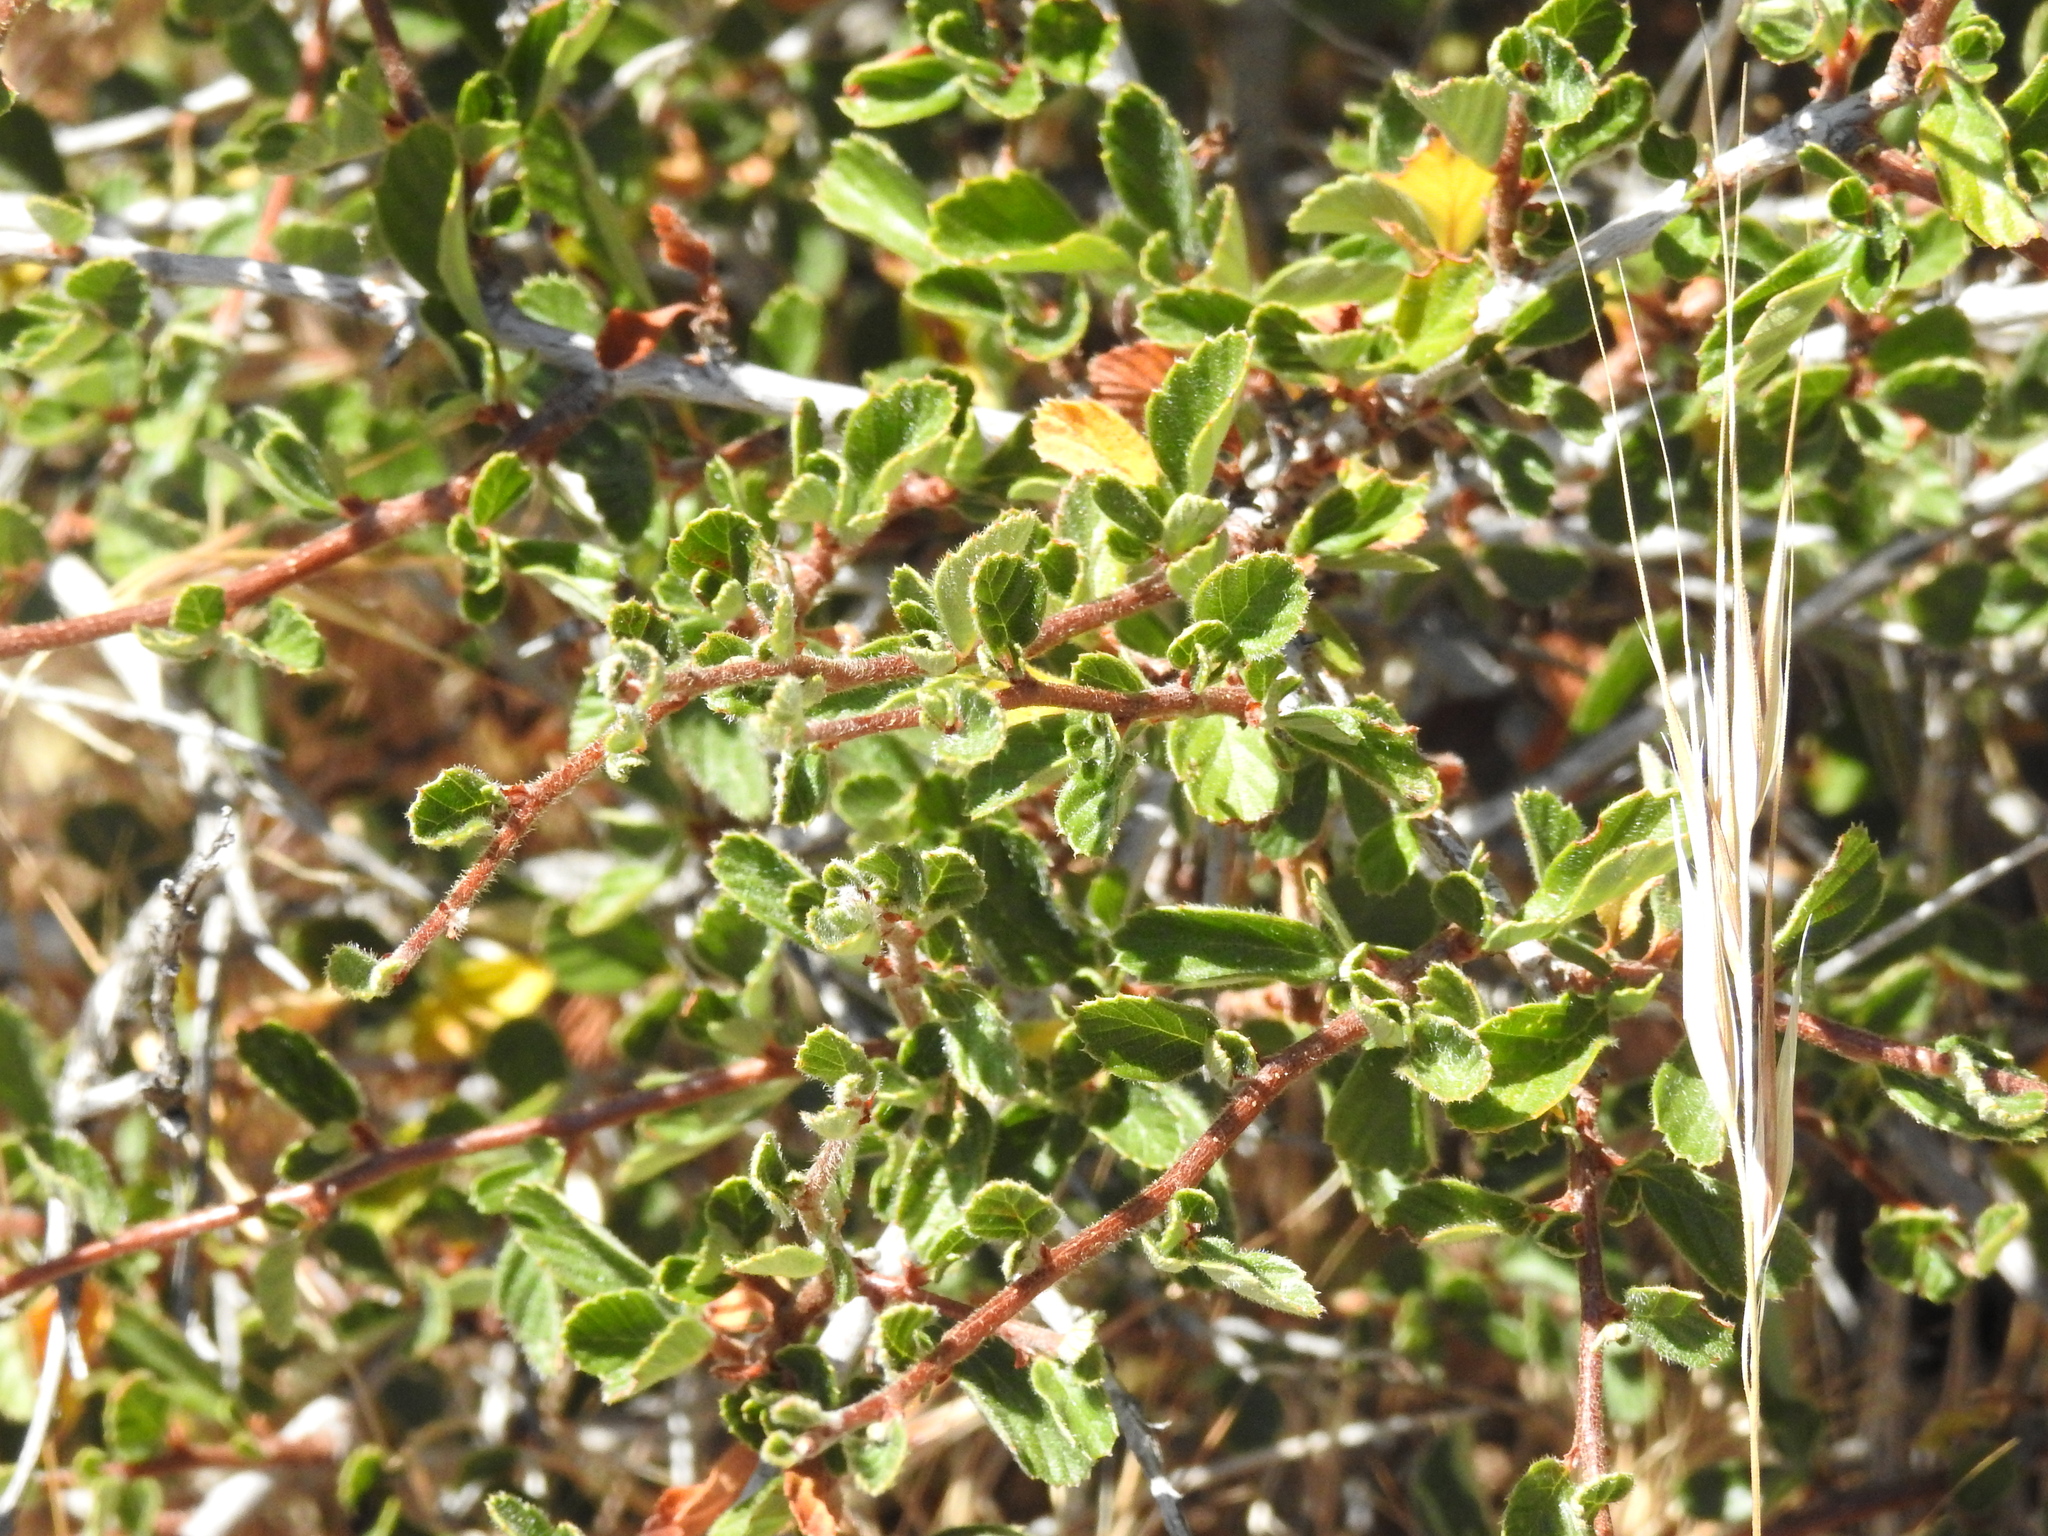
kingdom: Plantae
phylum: Tracheophyta
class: Magnoliopsida
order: Rosales
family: Rosaceae
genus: Cercocarpus
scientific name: Cercocarpus betuloides
